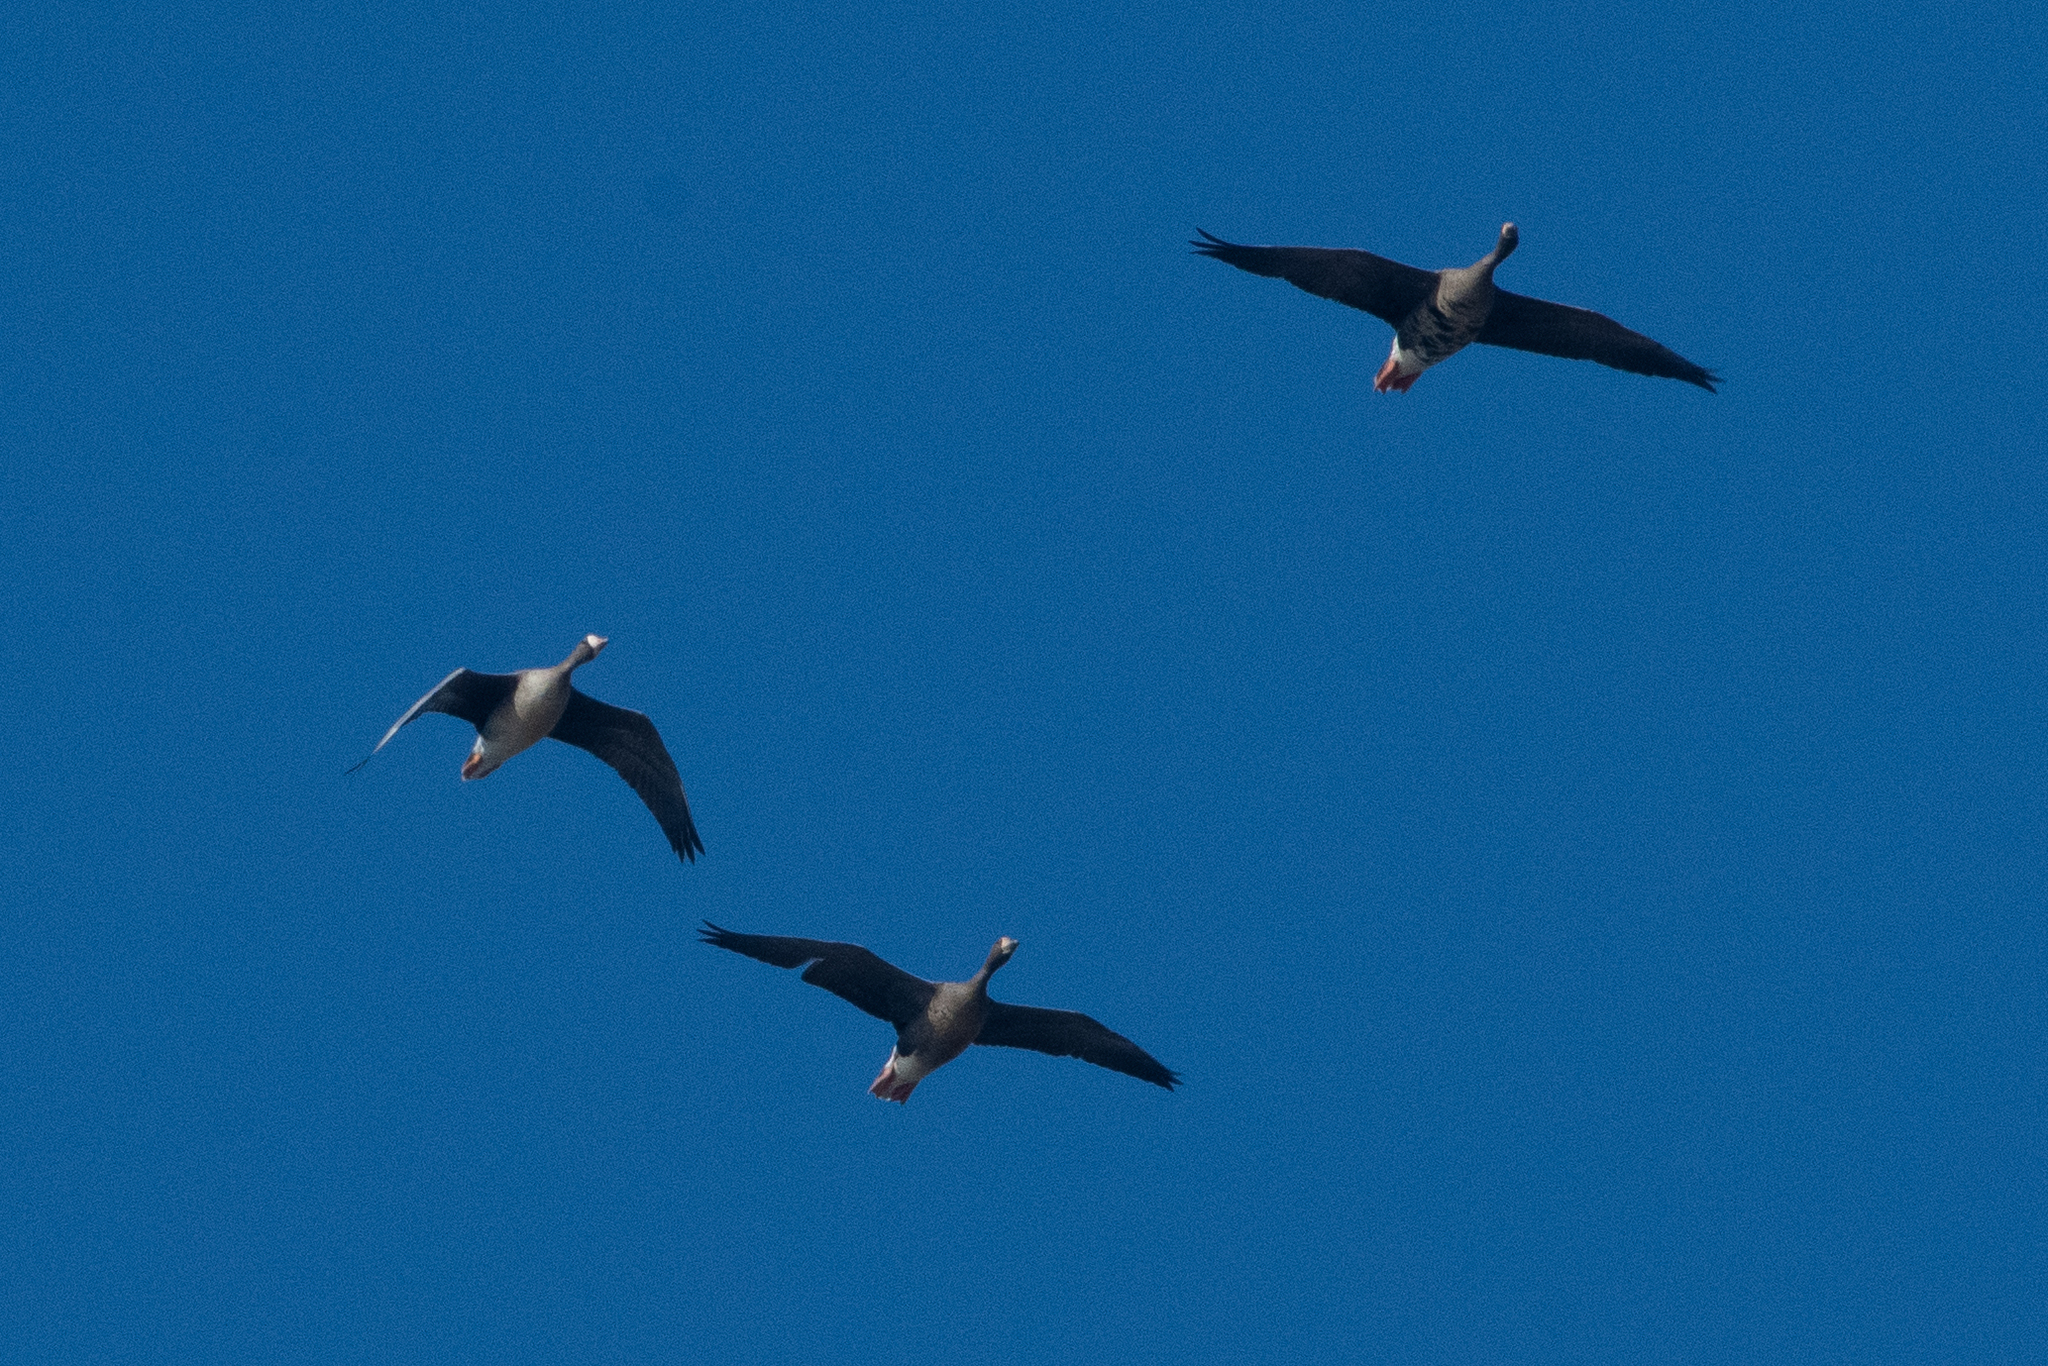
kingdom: Animalia
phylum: Chordata
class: Aves
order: Anseriformes
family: Anatidae
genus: Anser
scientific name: Anser albifrons
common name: Greater white-fronted goose
